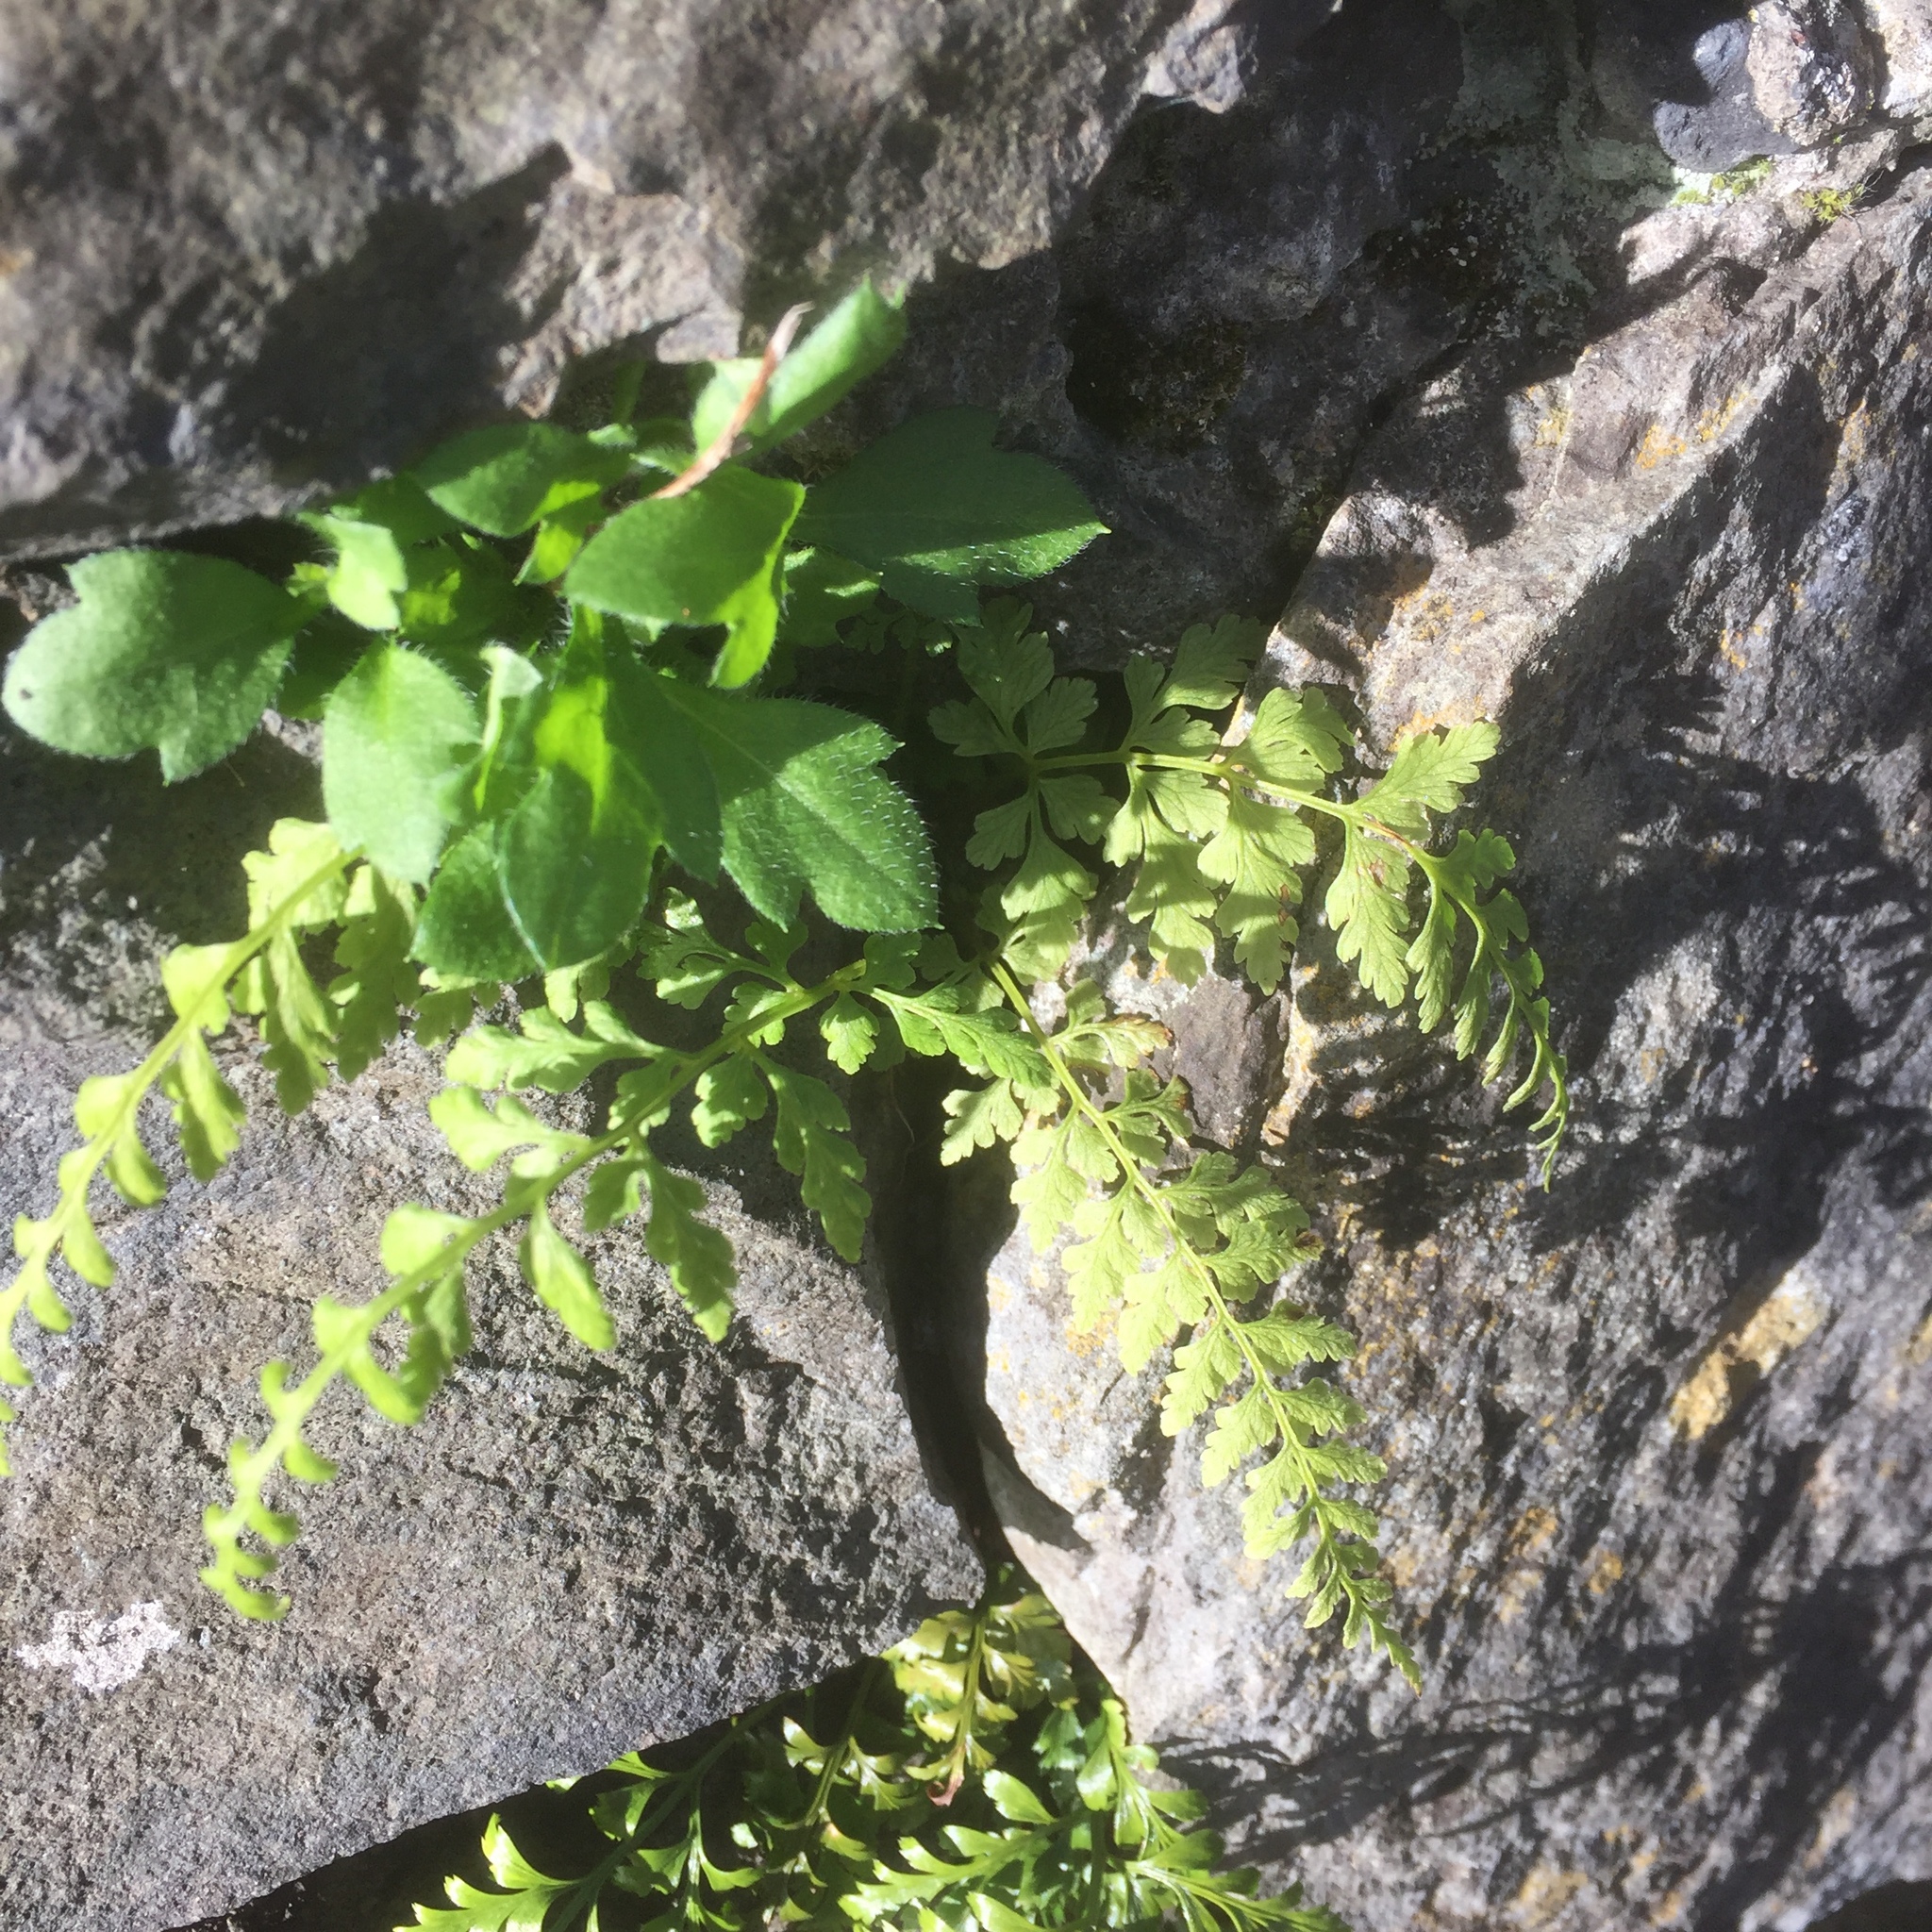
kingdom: Plantae
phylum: Tracheophyta
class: Polypodiopsida
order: Polypodiales
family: Cystopteridaceae
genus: Cystopteris
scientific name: Cystopteris fragilis
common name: Brittle bladder fern
